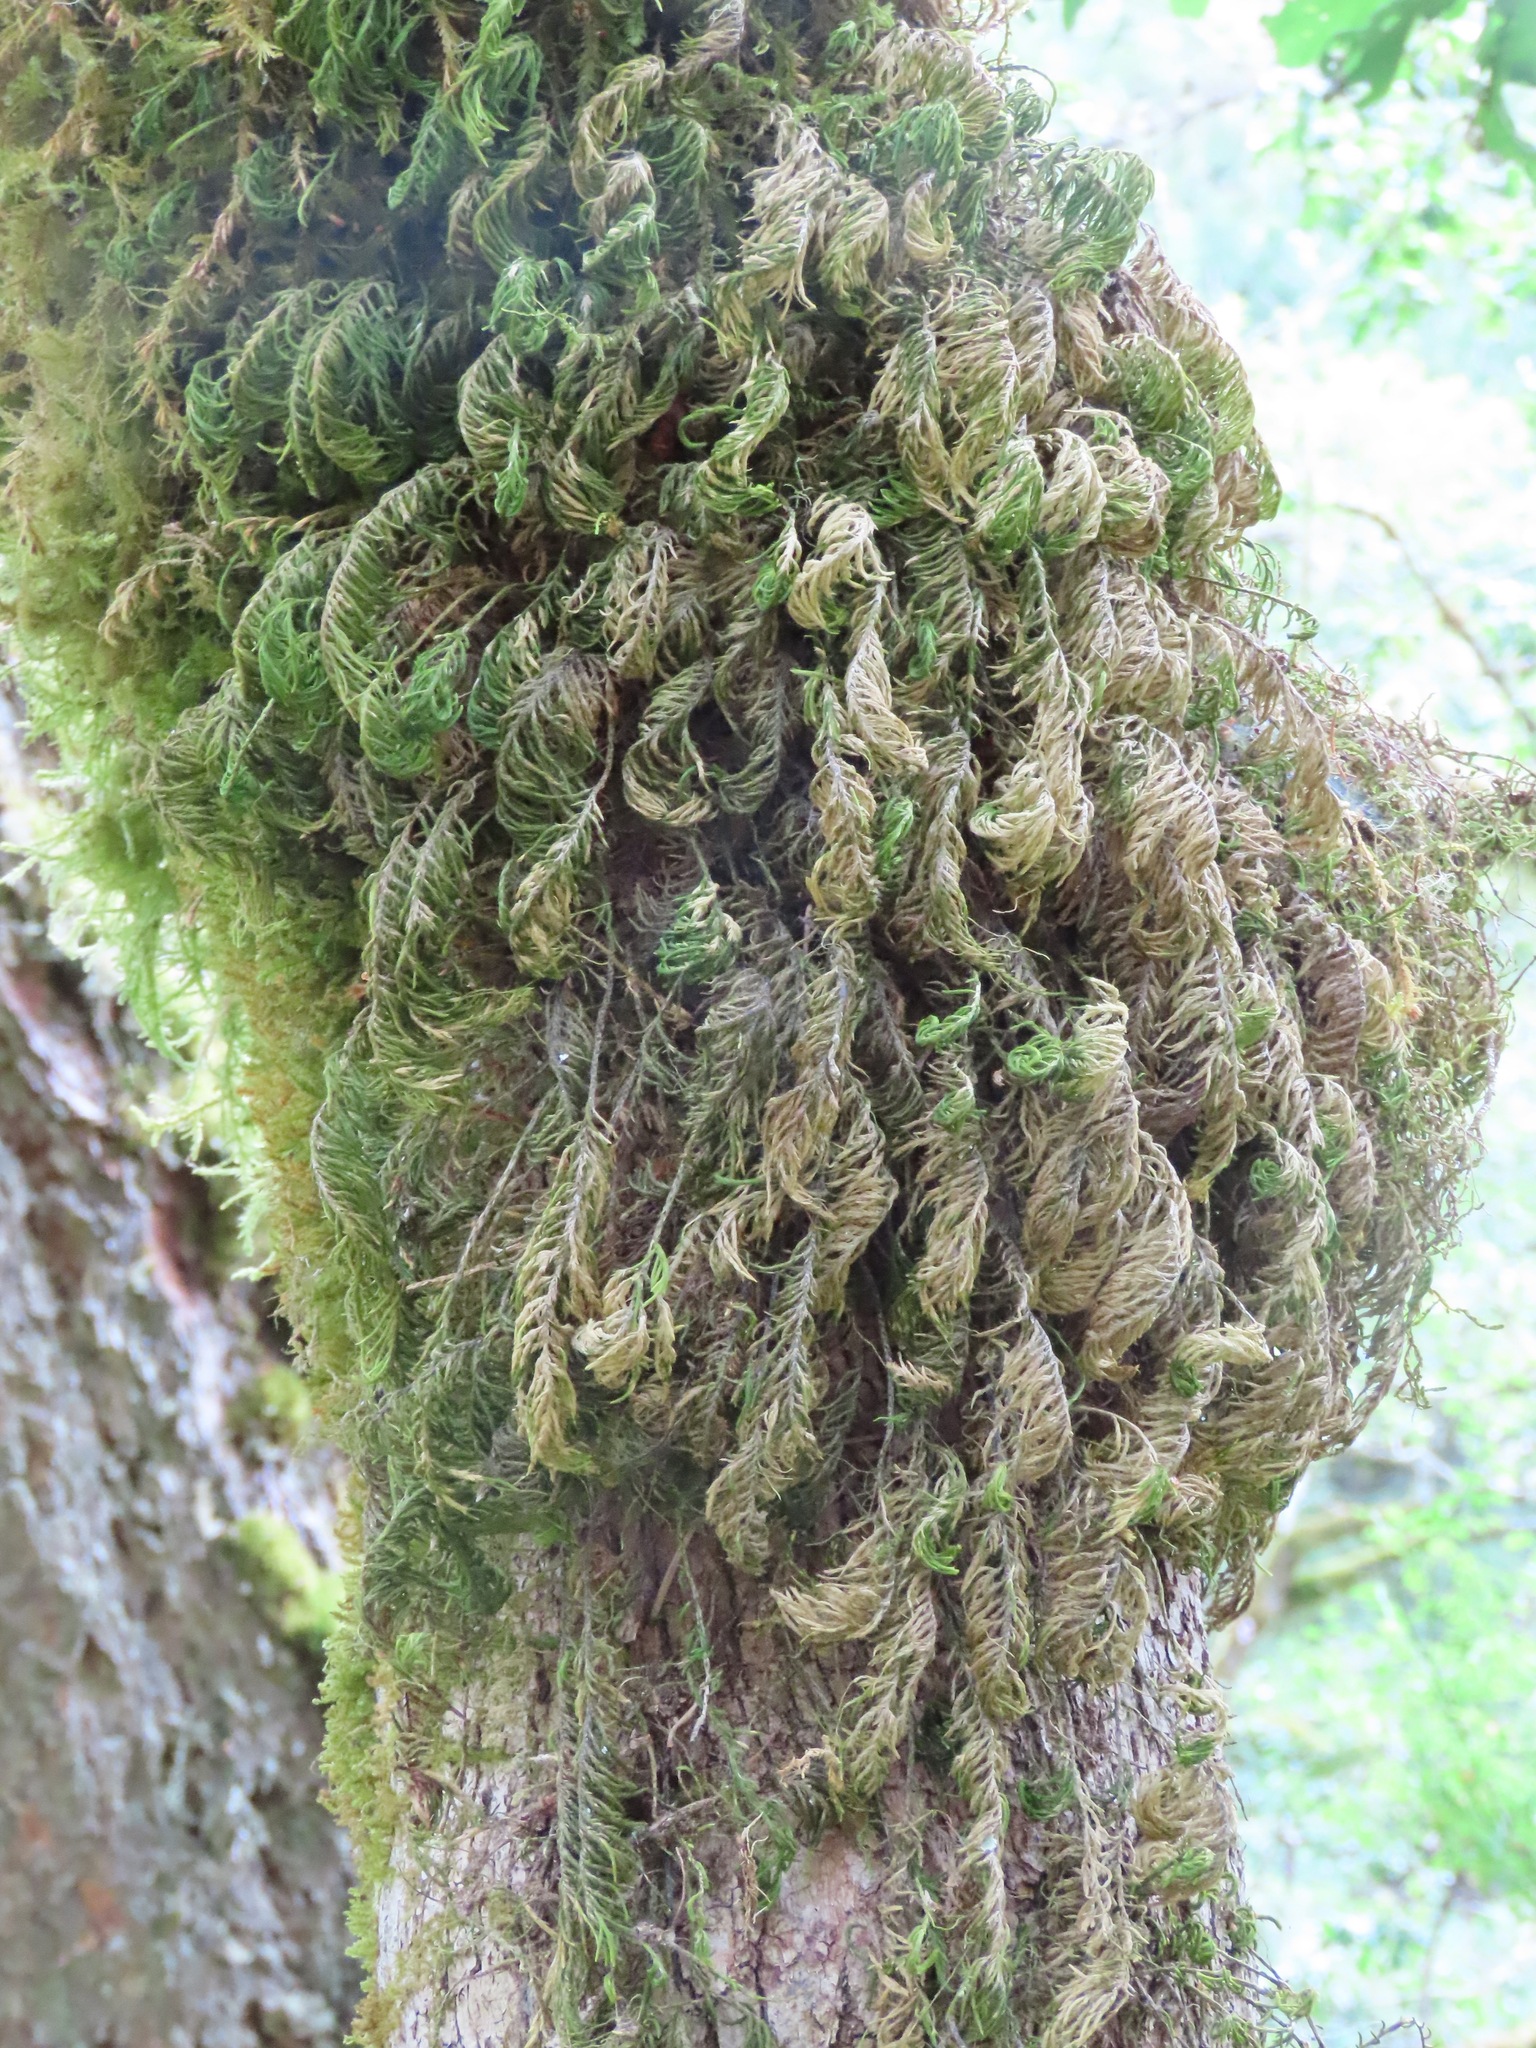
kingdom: Plantae
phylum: Bryophyta
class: Bryopsida
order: Hypnales
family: Cryphaeaceae
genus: Dendroalsia
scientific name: Dendroalsia abietina
